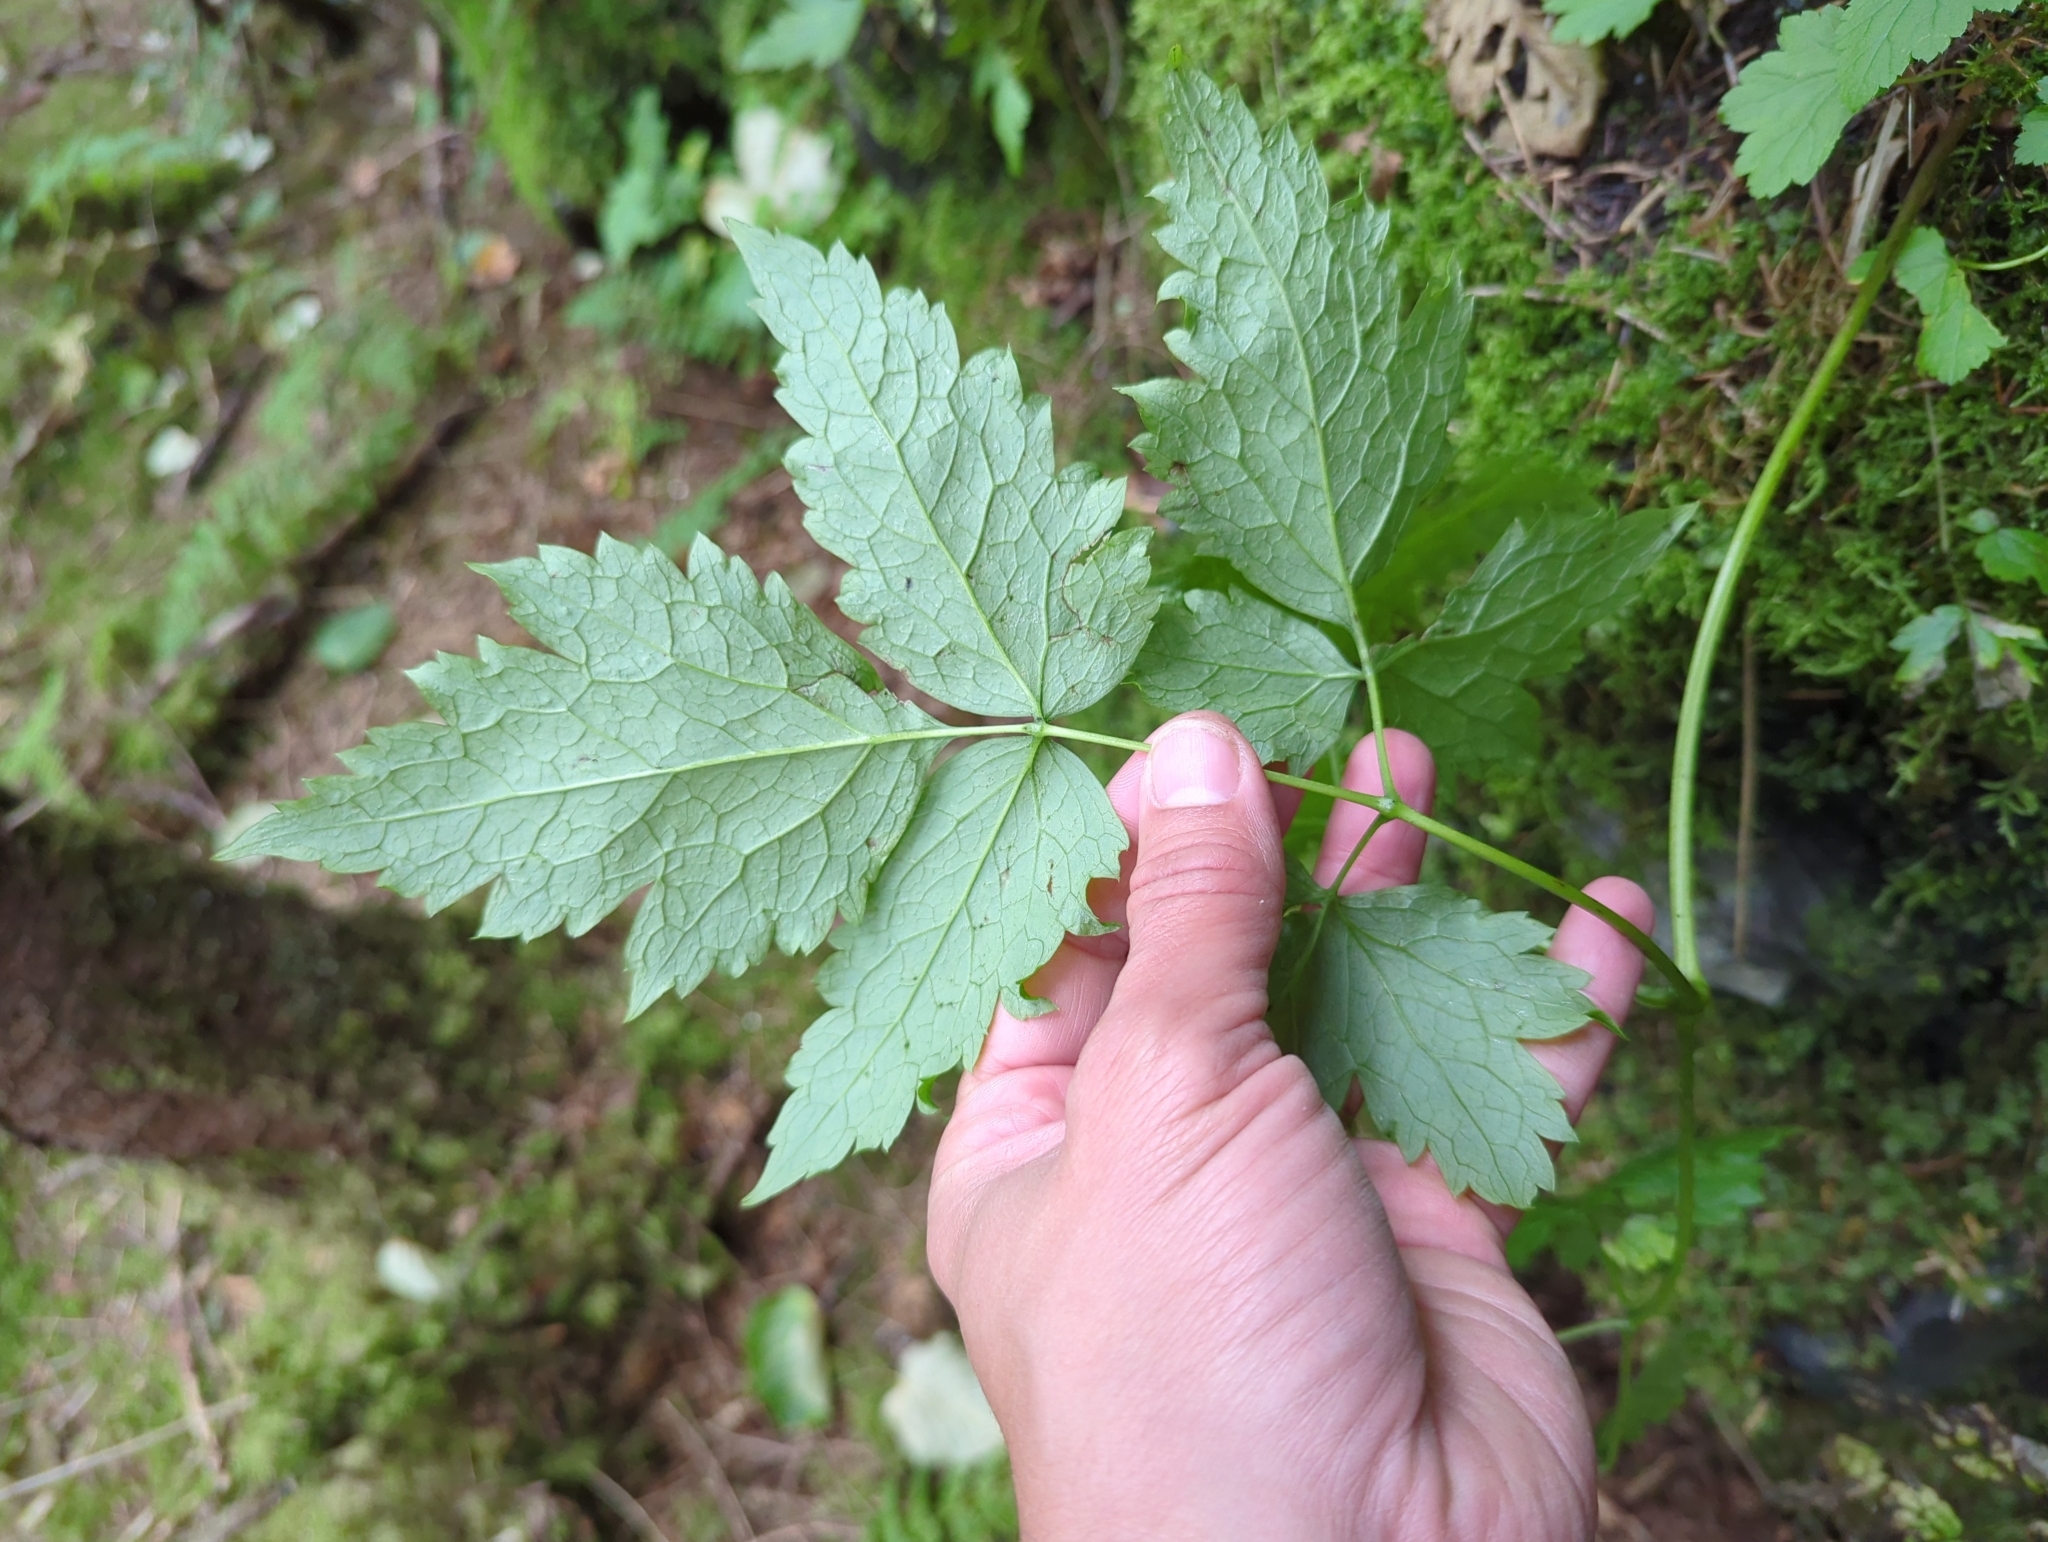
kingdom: Plantae
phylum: Tracheophyta
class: Magnoliopsida
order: Ranunculales
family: Ranunculaceae
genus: Actaea
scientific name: Actaea rubra
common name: Red baneberry
